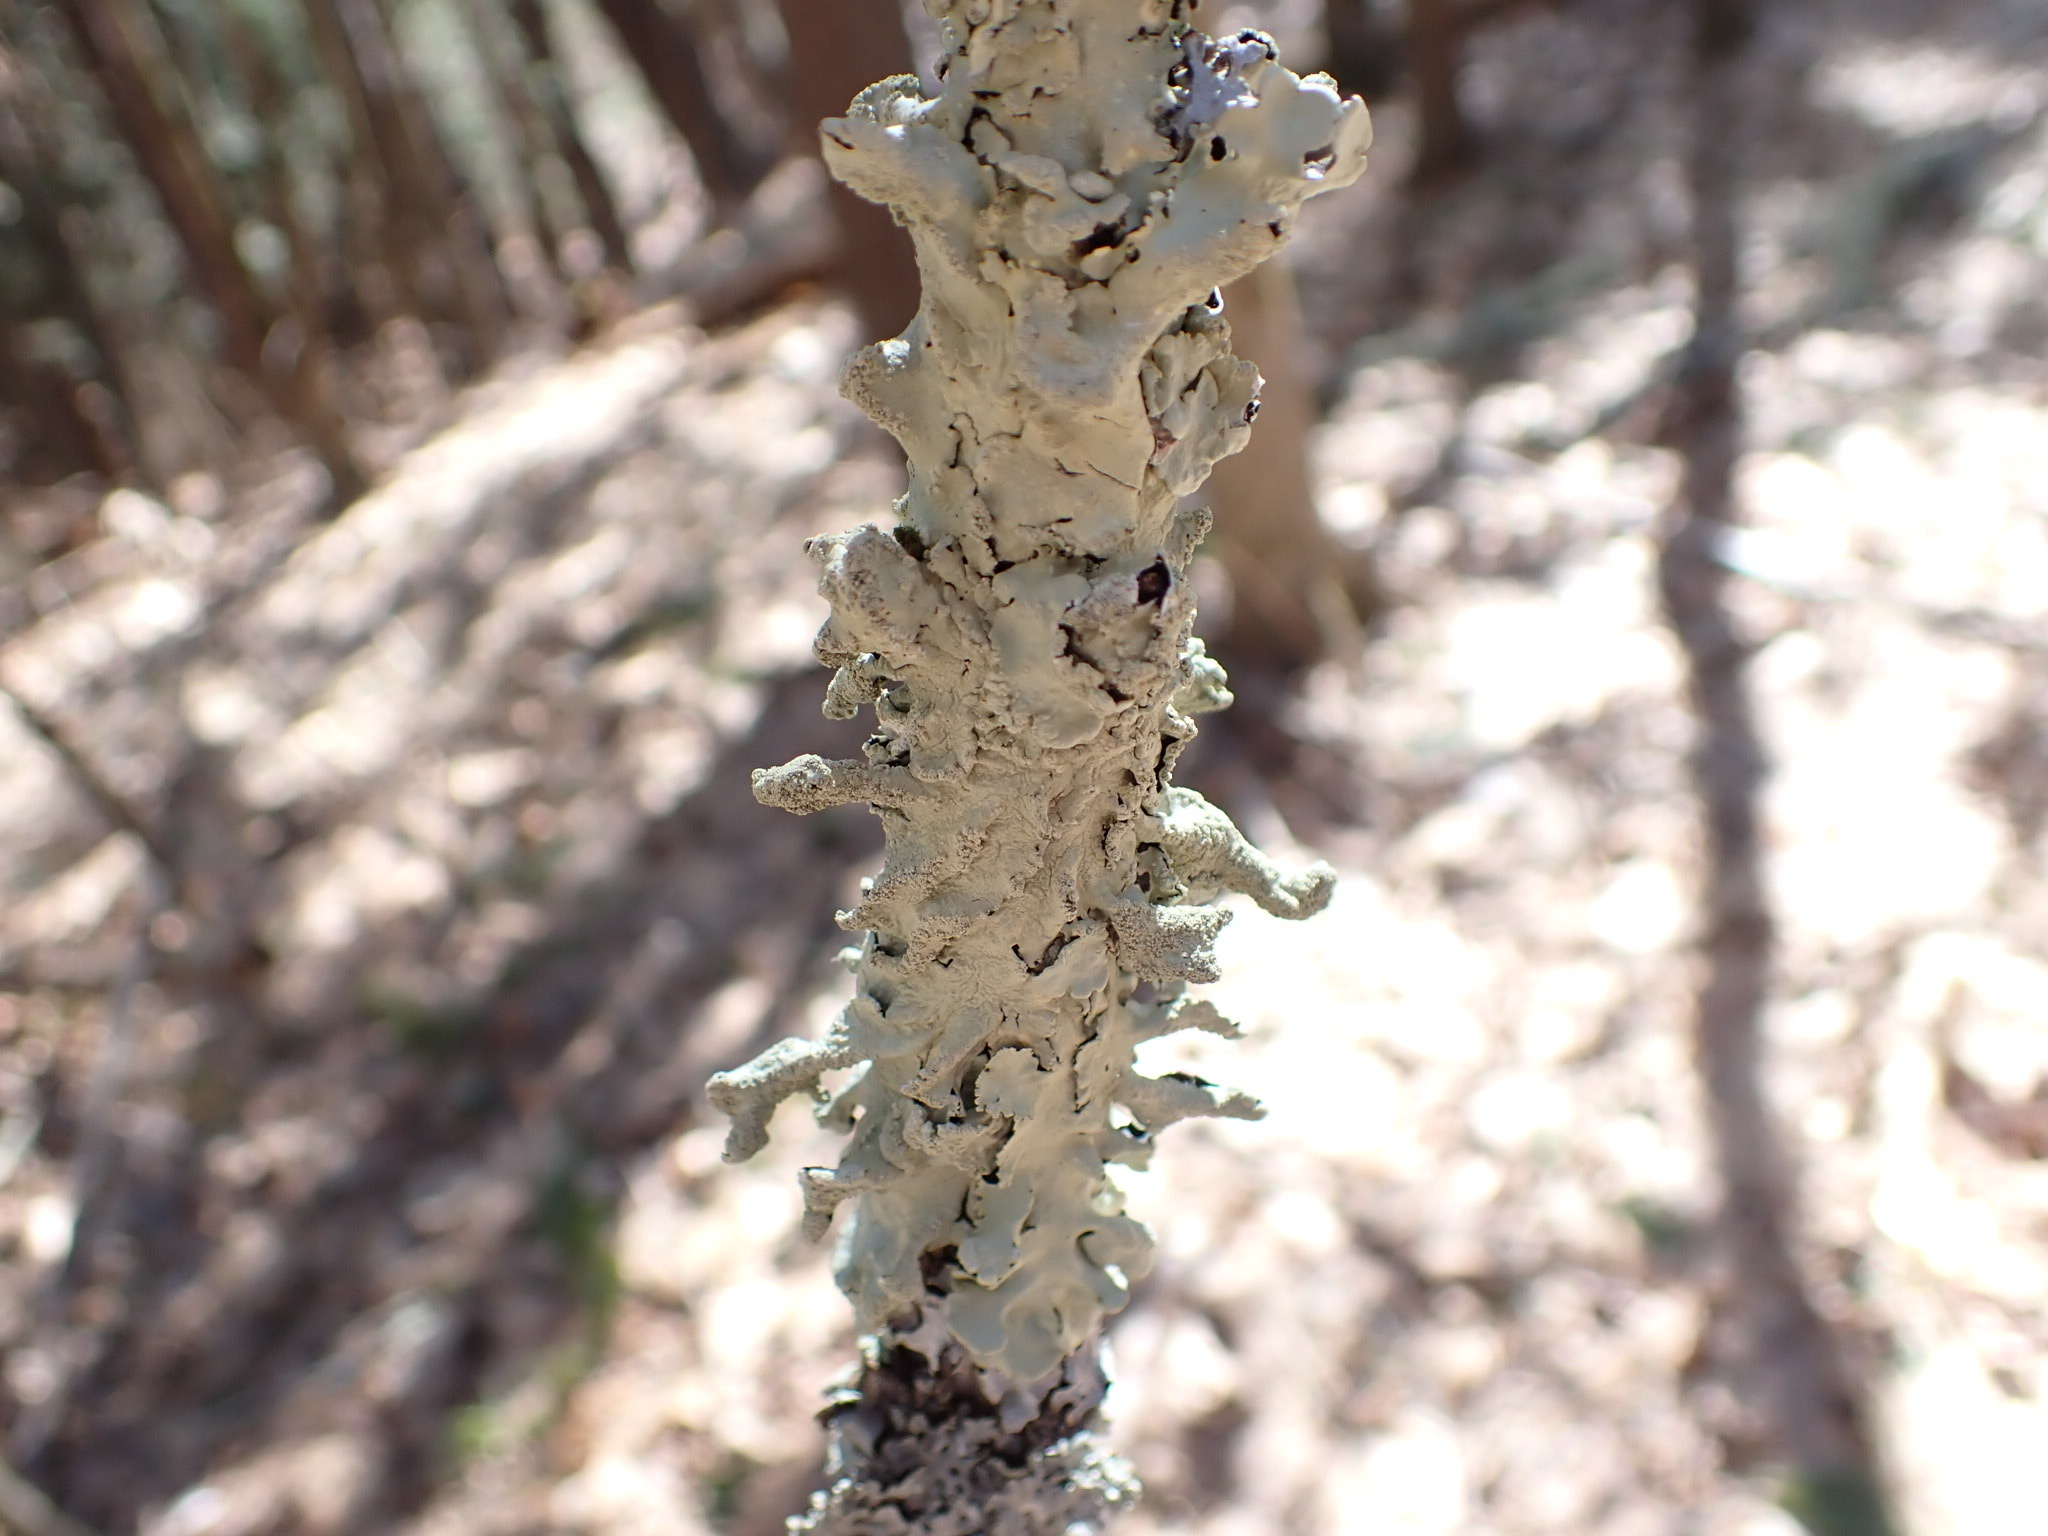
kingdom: Fungi
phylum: Ascomycota
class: Lecanoromycetes
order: Lecanorales
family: Parmeliaceae
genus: Flavoparmelia
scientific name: Flavoparmelia caperata
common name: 40-mile per hour lichen
